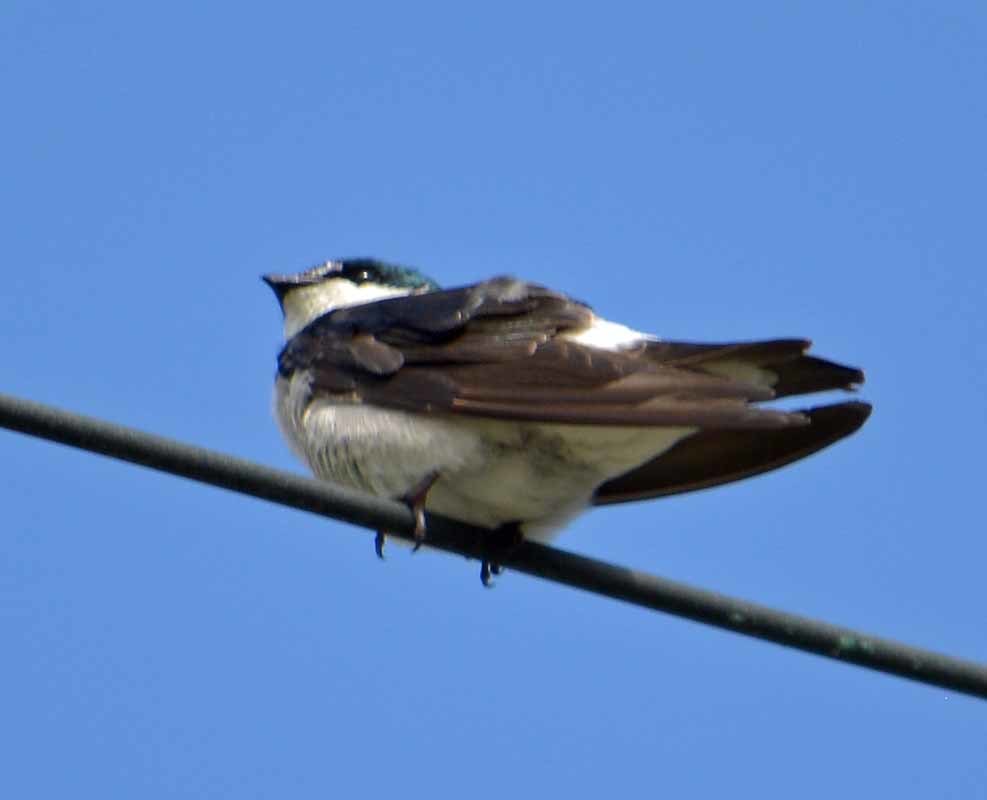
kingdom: Animalia
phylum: Chordata
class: Aves
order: Passeriformes
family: Hirundinidae
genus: Tachycineta
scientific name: Tachycineta albilinea
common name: Mangrove swallow
